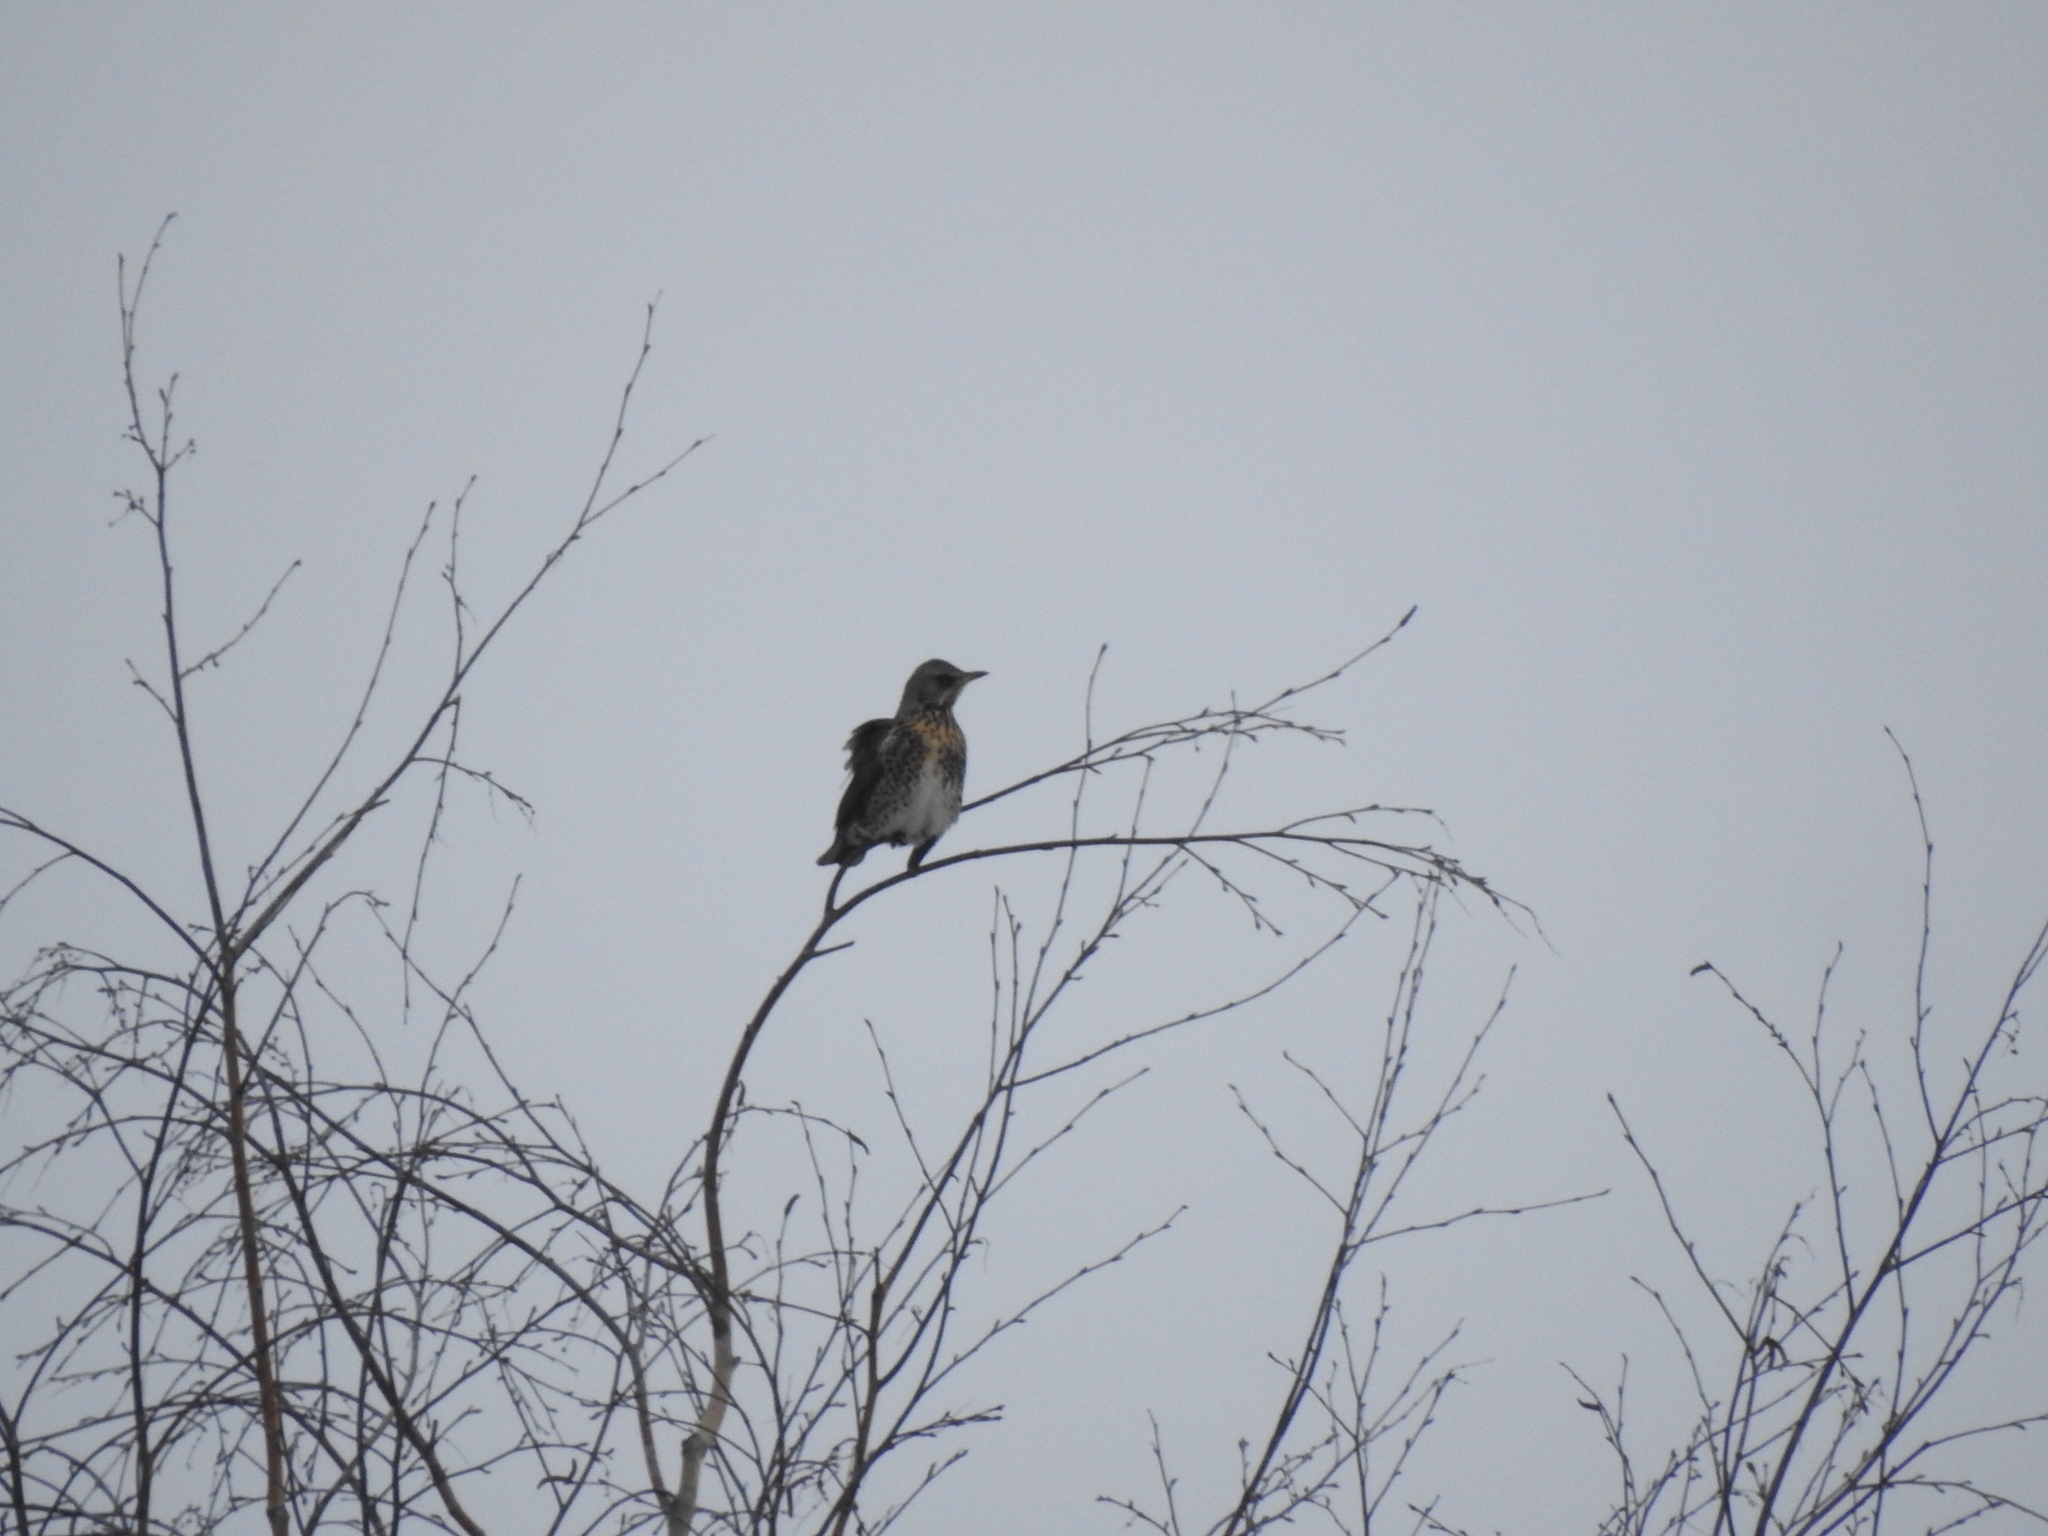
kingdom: Animalia
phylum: Chordata
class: Aves
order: Passeriformes
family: Turdidae
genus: Turdus
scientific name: Turdus pilaris
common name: Fieldfare
